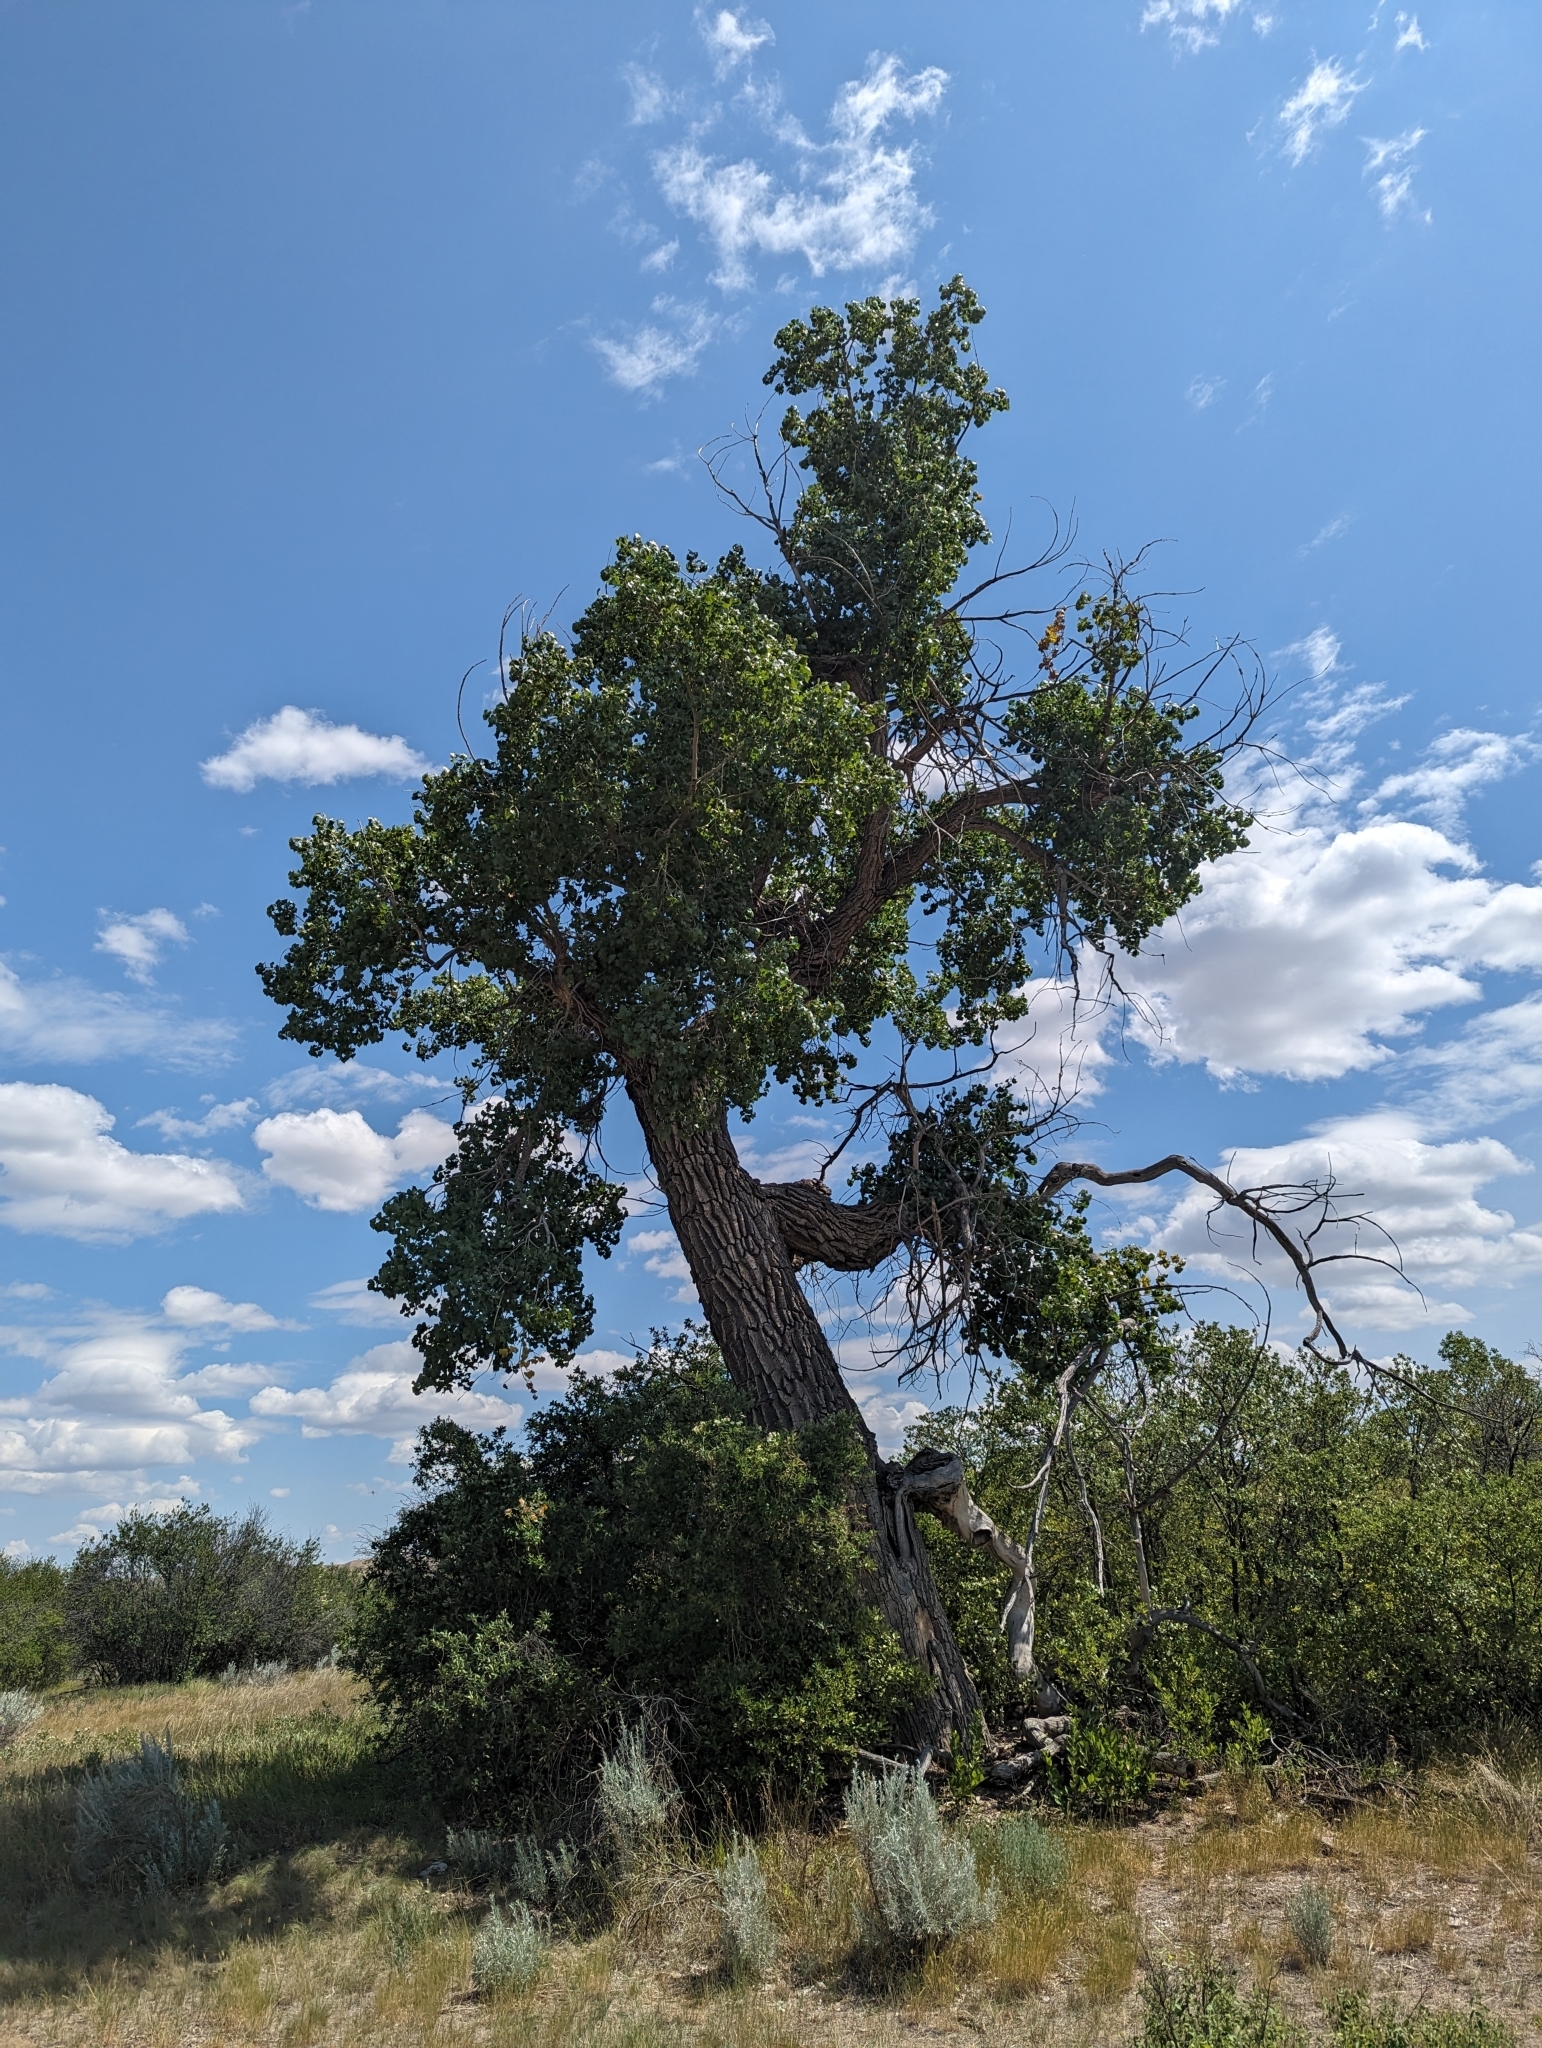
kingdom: Plantae
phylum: Tracheophyta
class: Magnoliopsida
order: Malpighiales
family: Salicaceae
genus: Populus
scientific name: Populus deltoides
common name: Eastern cottonwood
